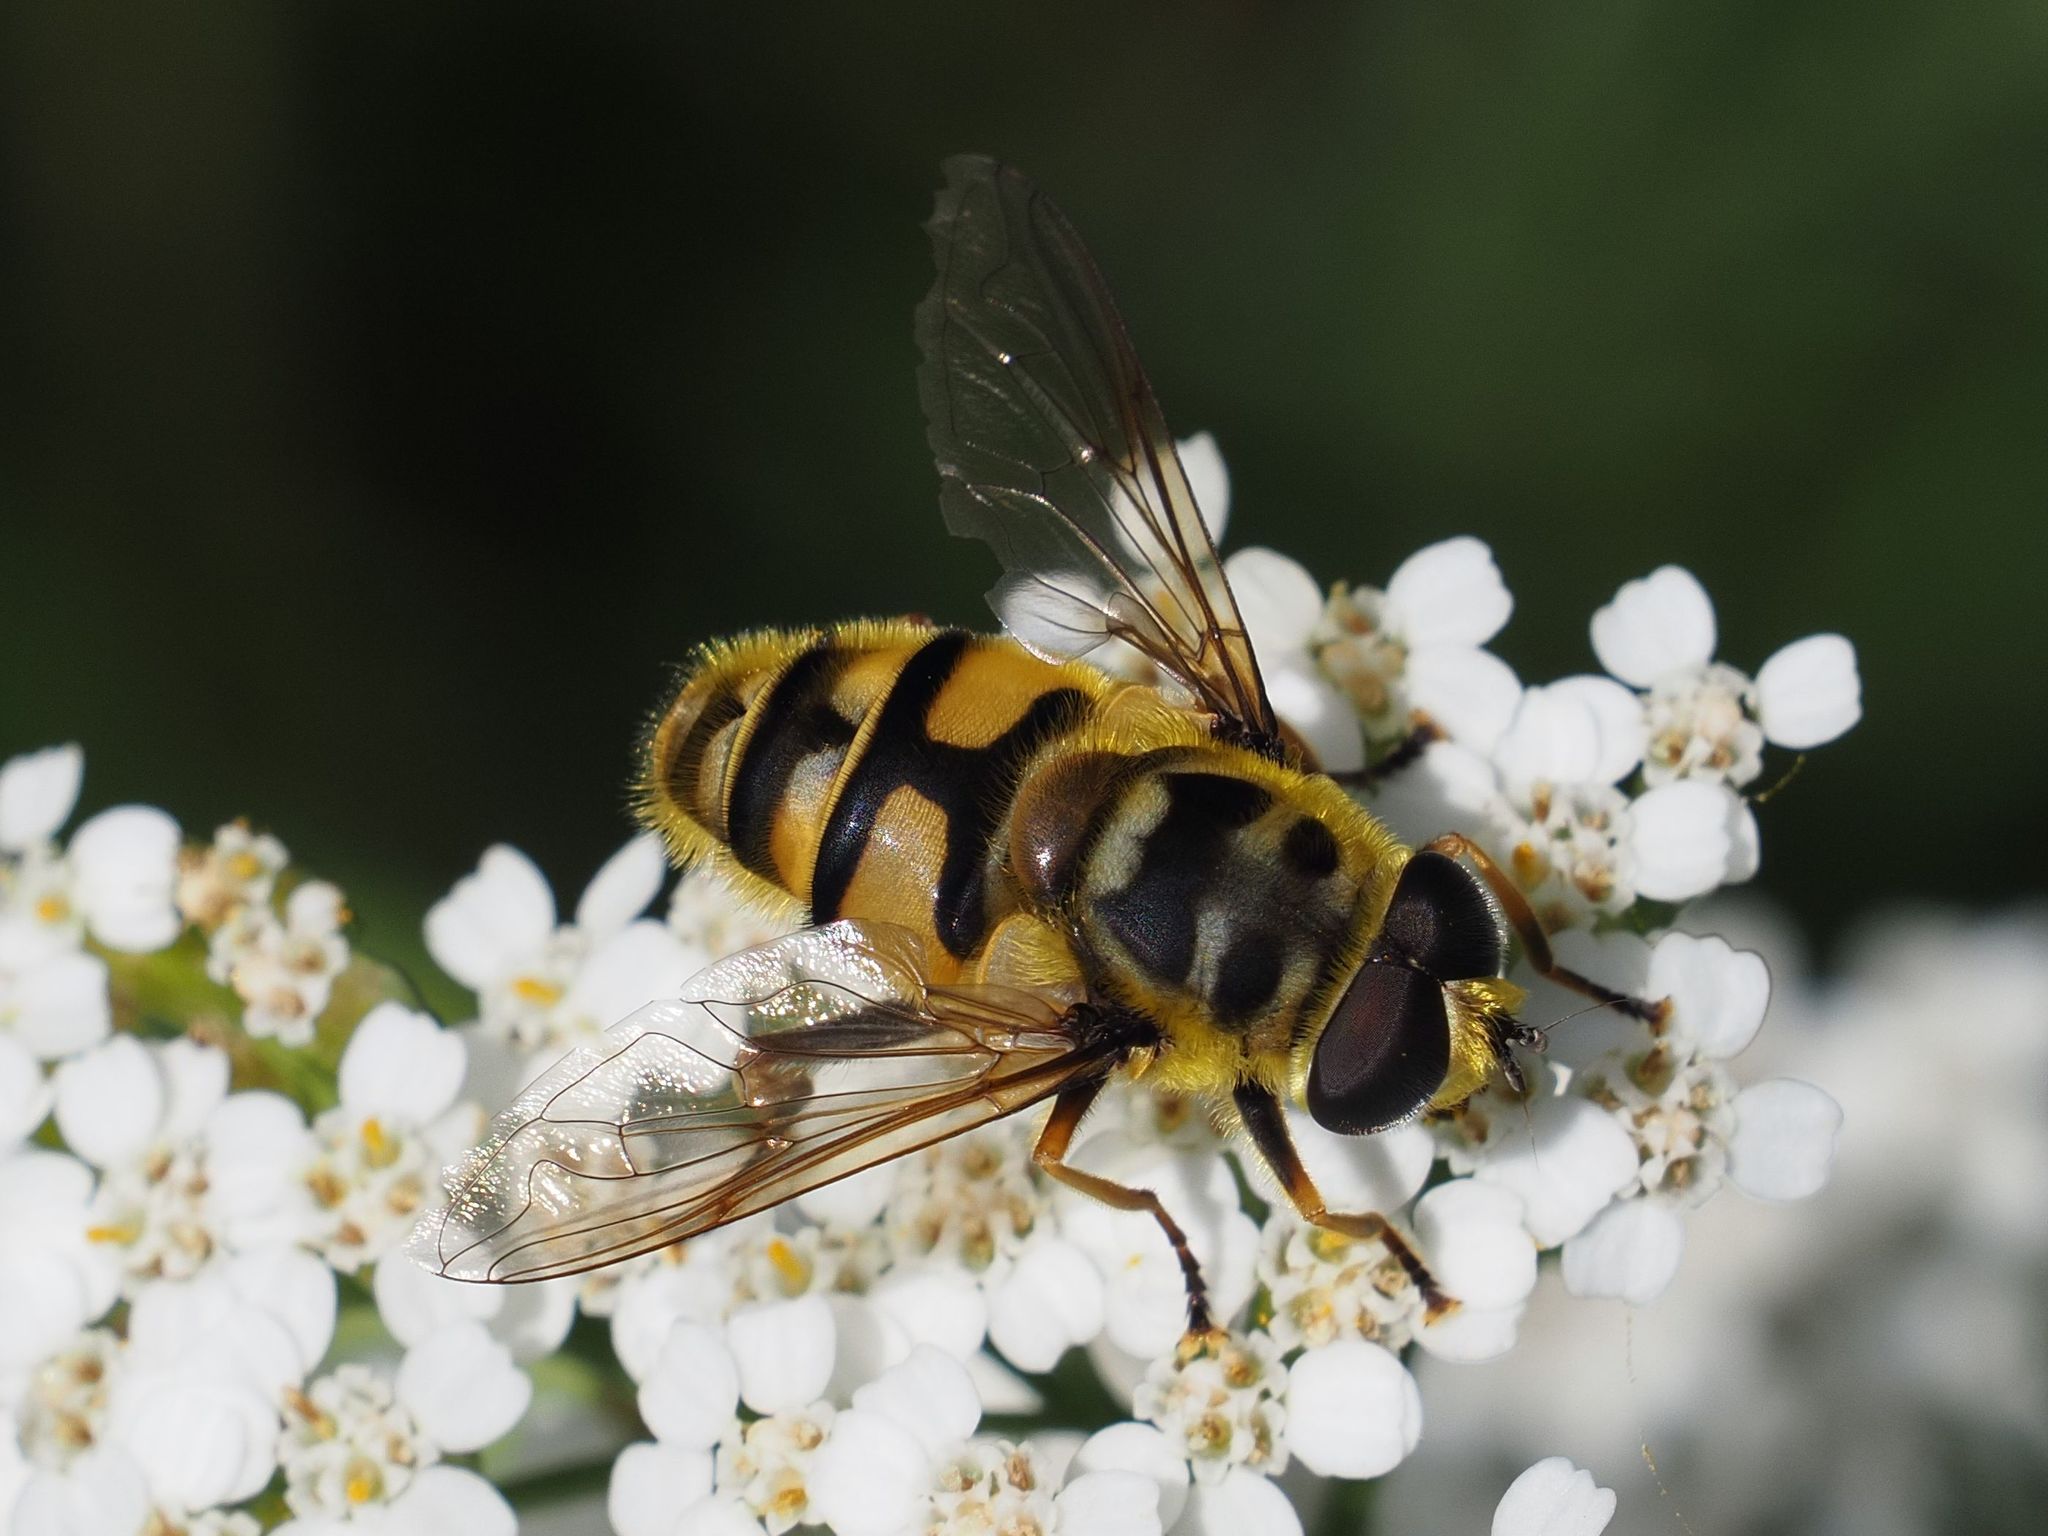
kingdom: Animalia
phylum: Arthropoda
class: Insecta
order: Diptera
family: Syrphidae
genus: Myathropa
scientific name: Myathropa florea
